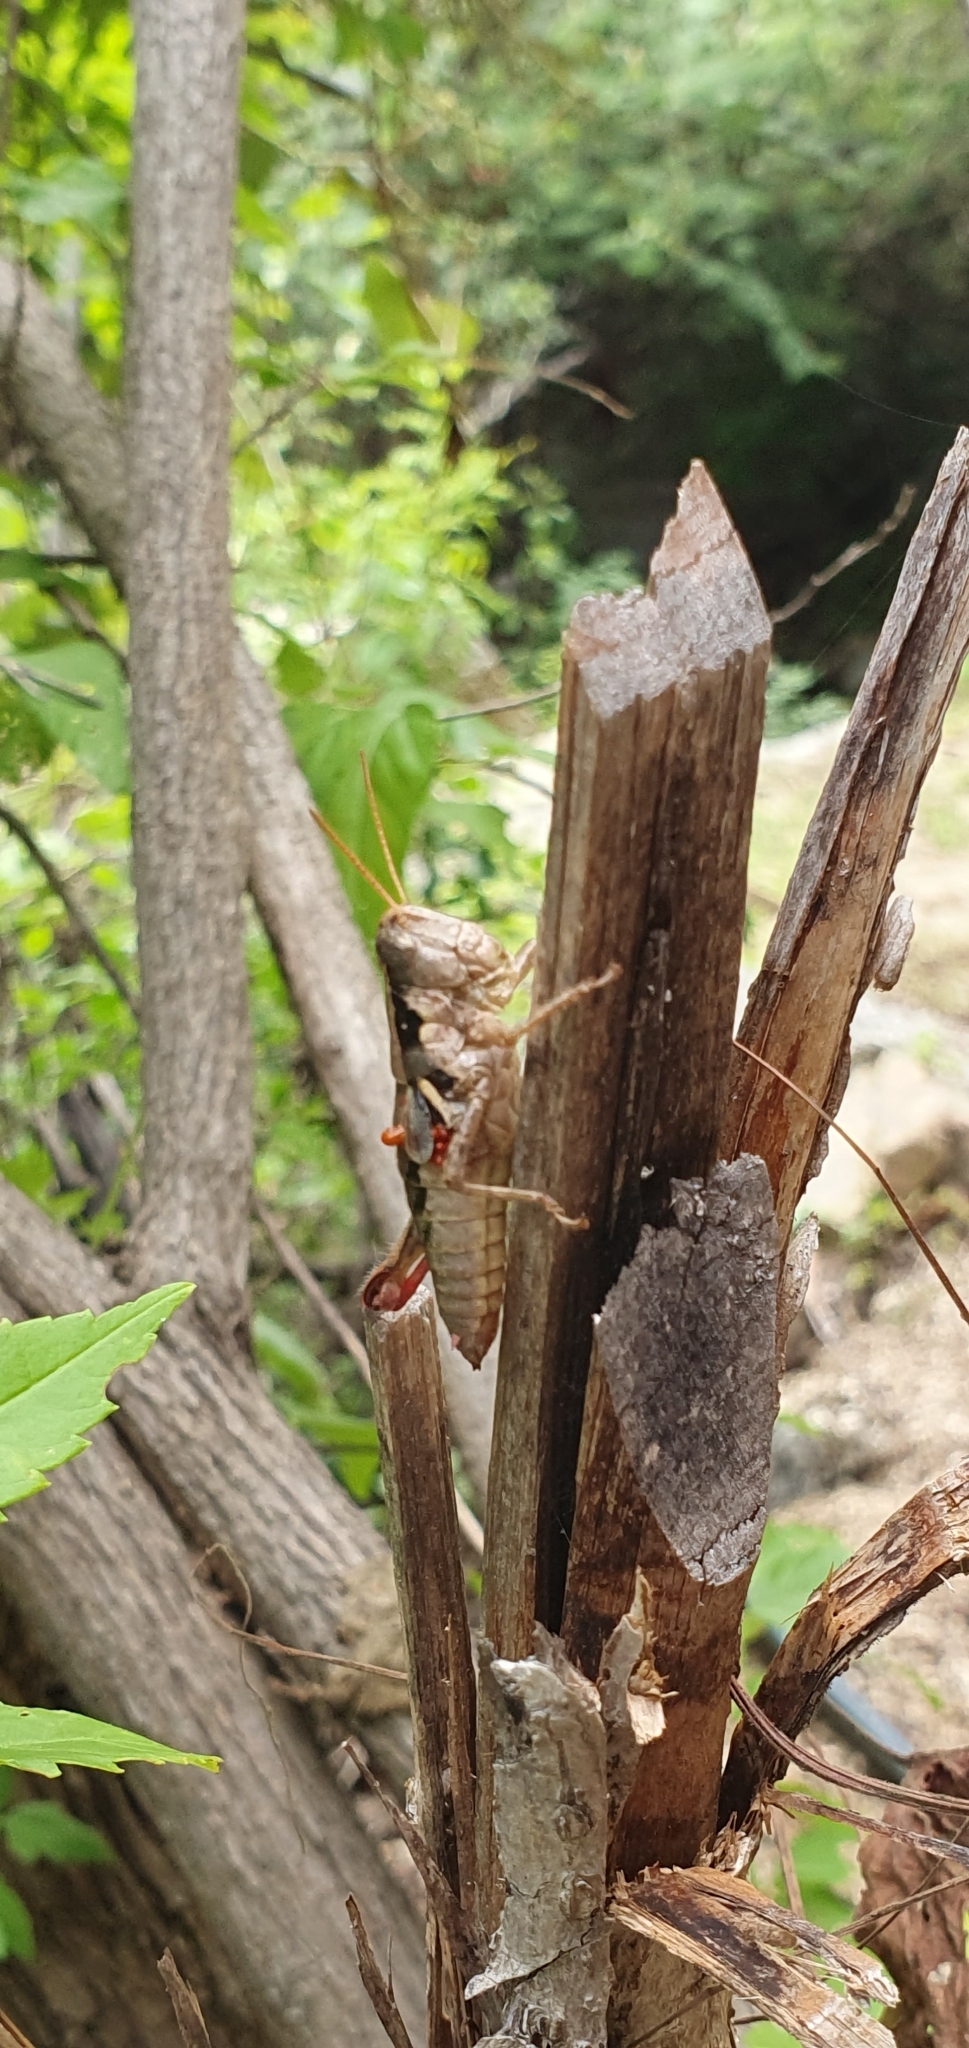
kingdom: Animalia
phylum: Arthropoda
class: Insecta
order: Orthoptera
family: Acrididae
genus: Barytettix
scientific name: Barytettix crassus
